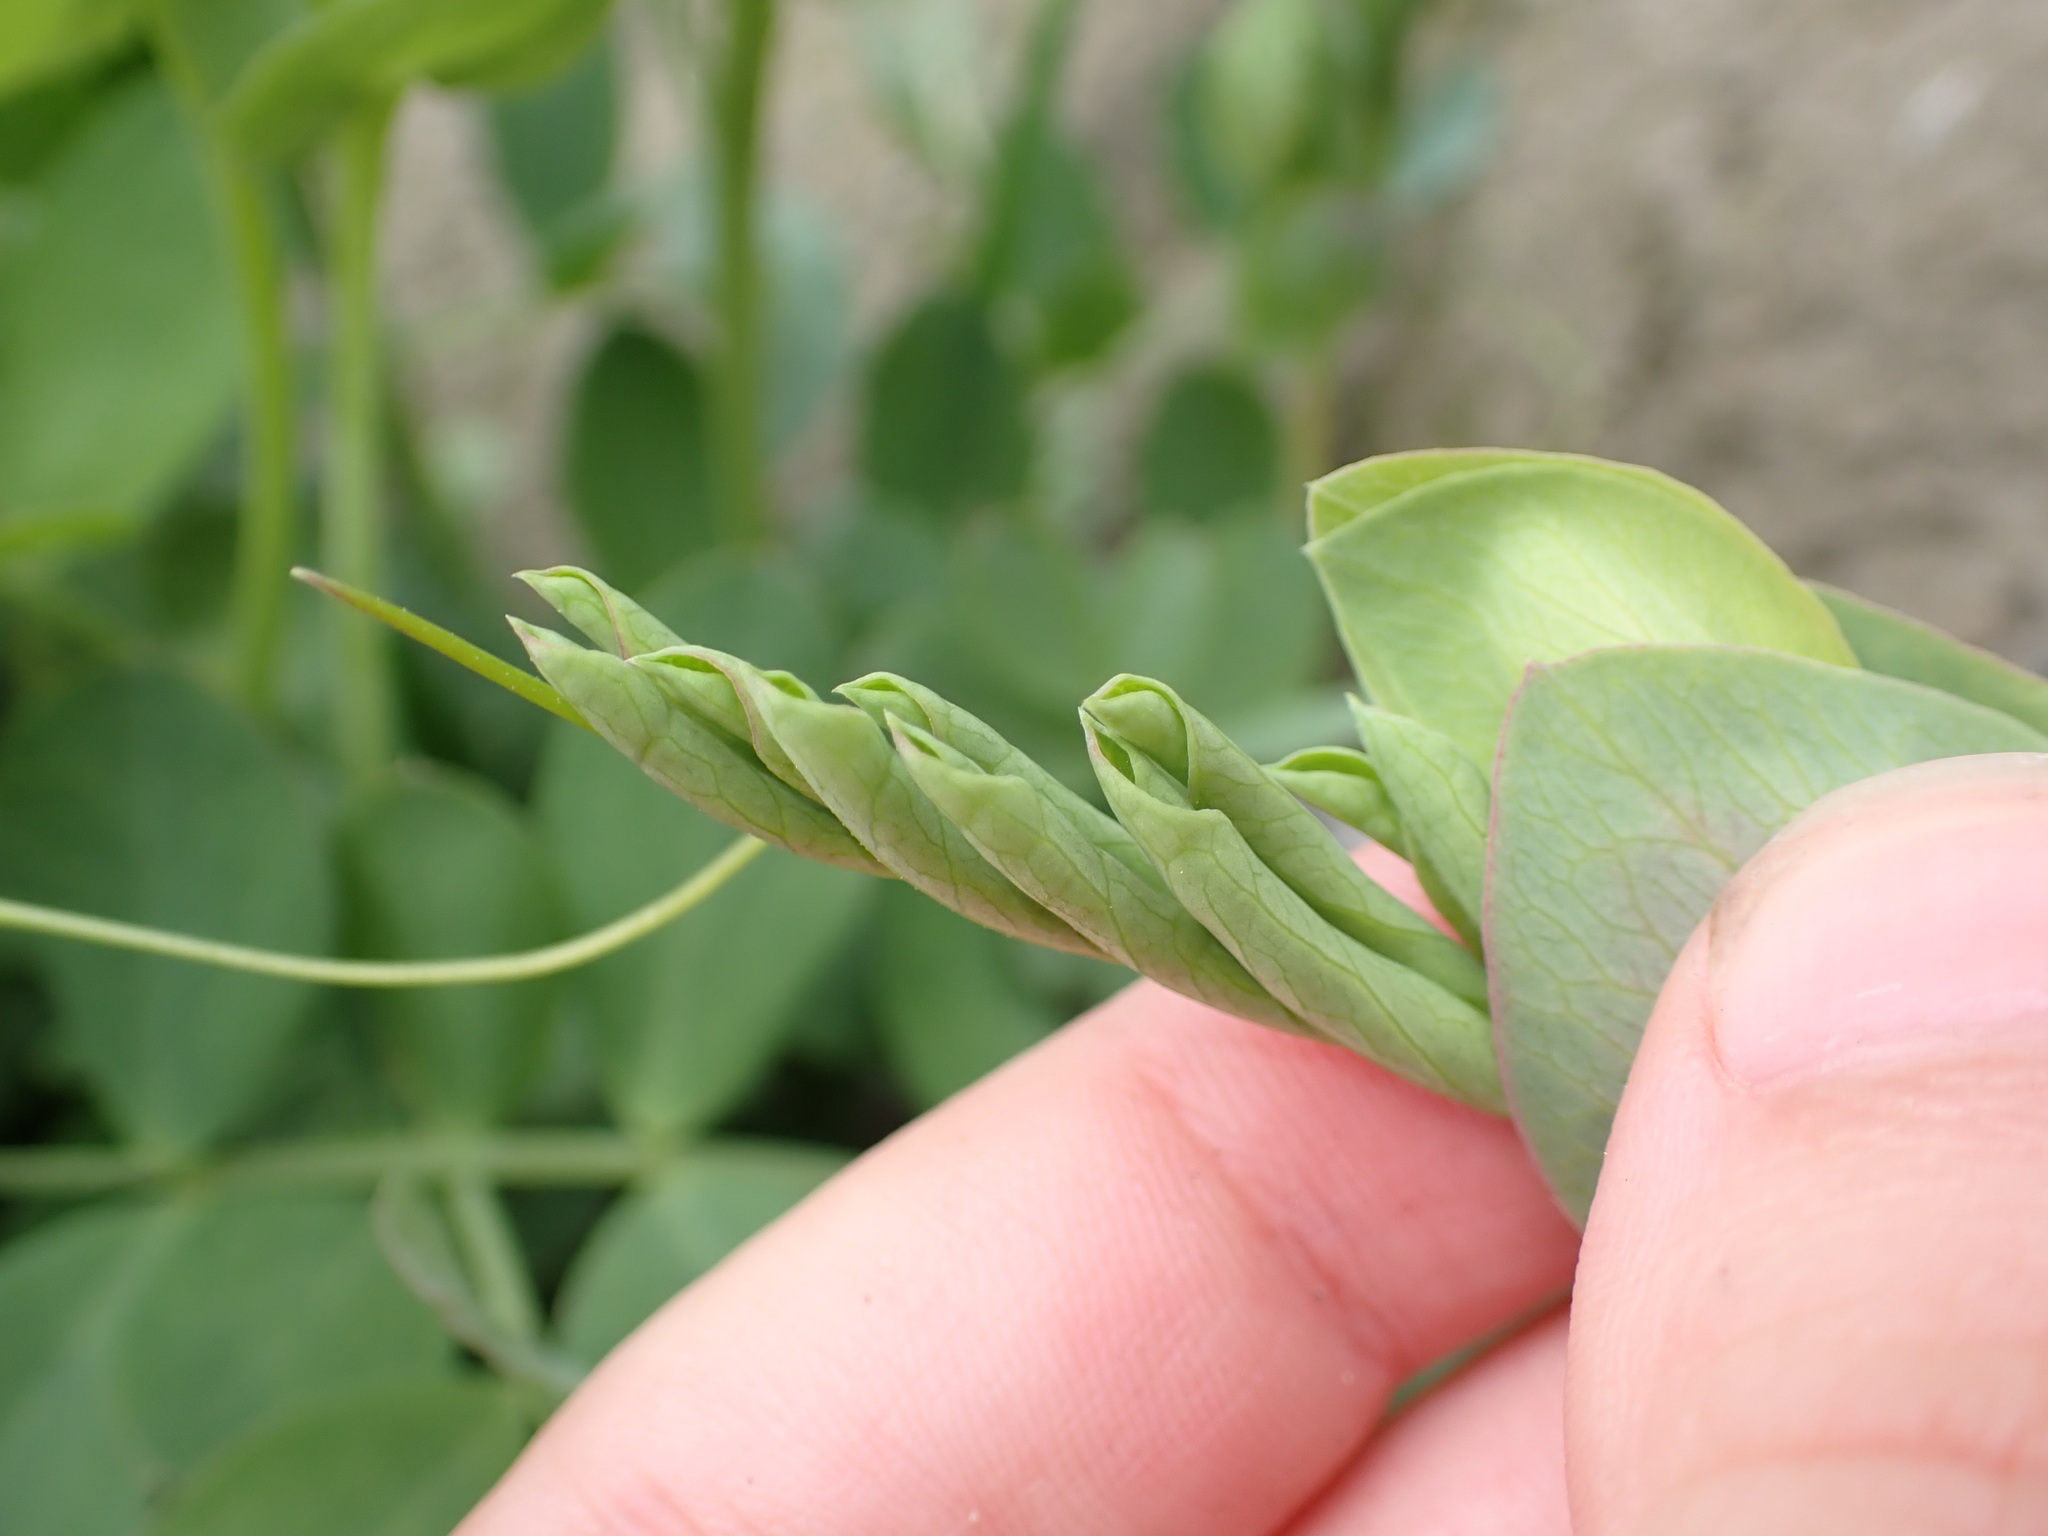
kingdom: Plantae
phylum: Tracheophyta
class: Magnoliopsida
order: Fabales
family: Fabaceae
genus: Lathyrus
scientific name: Lathyrus japonicus
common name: Sea pea
